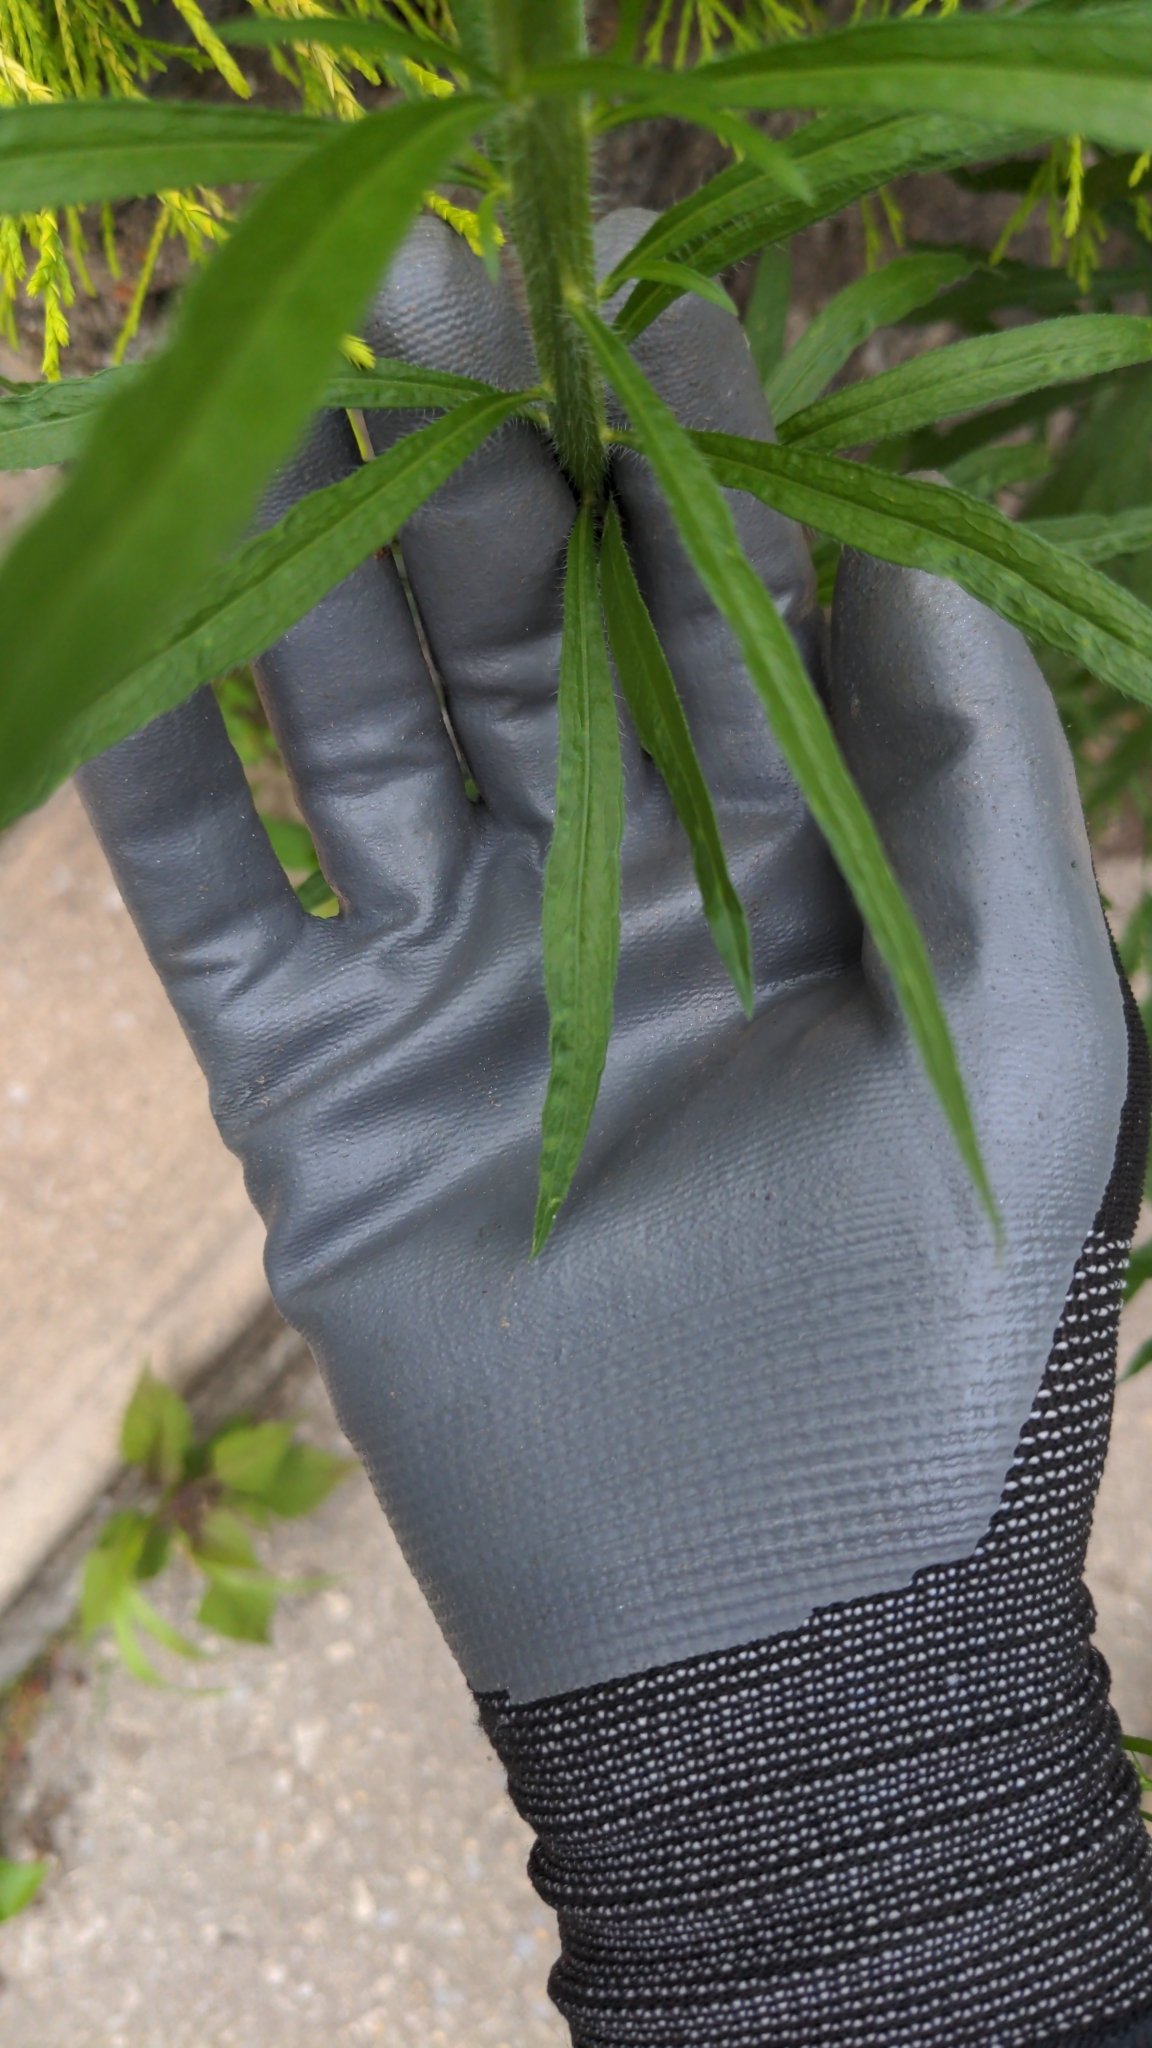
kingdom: Plantae
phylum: Tracheophyta
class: Magnoliopsida
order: Asterales
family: Asteraceae
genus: Erigeron
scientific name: Erigeron canadensis
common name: Canadian fleabane
